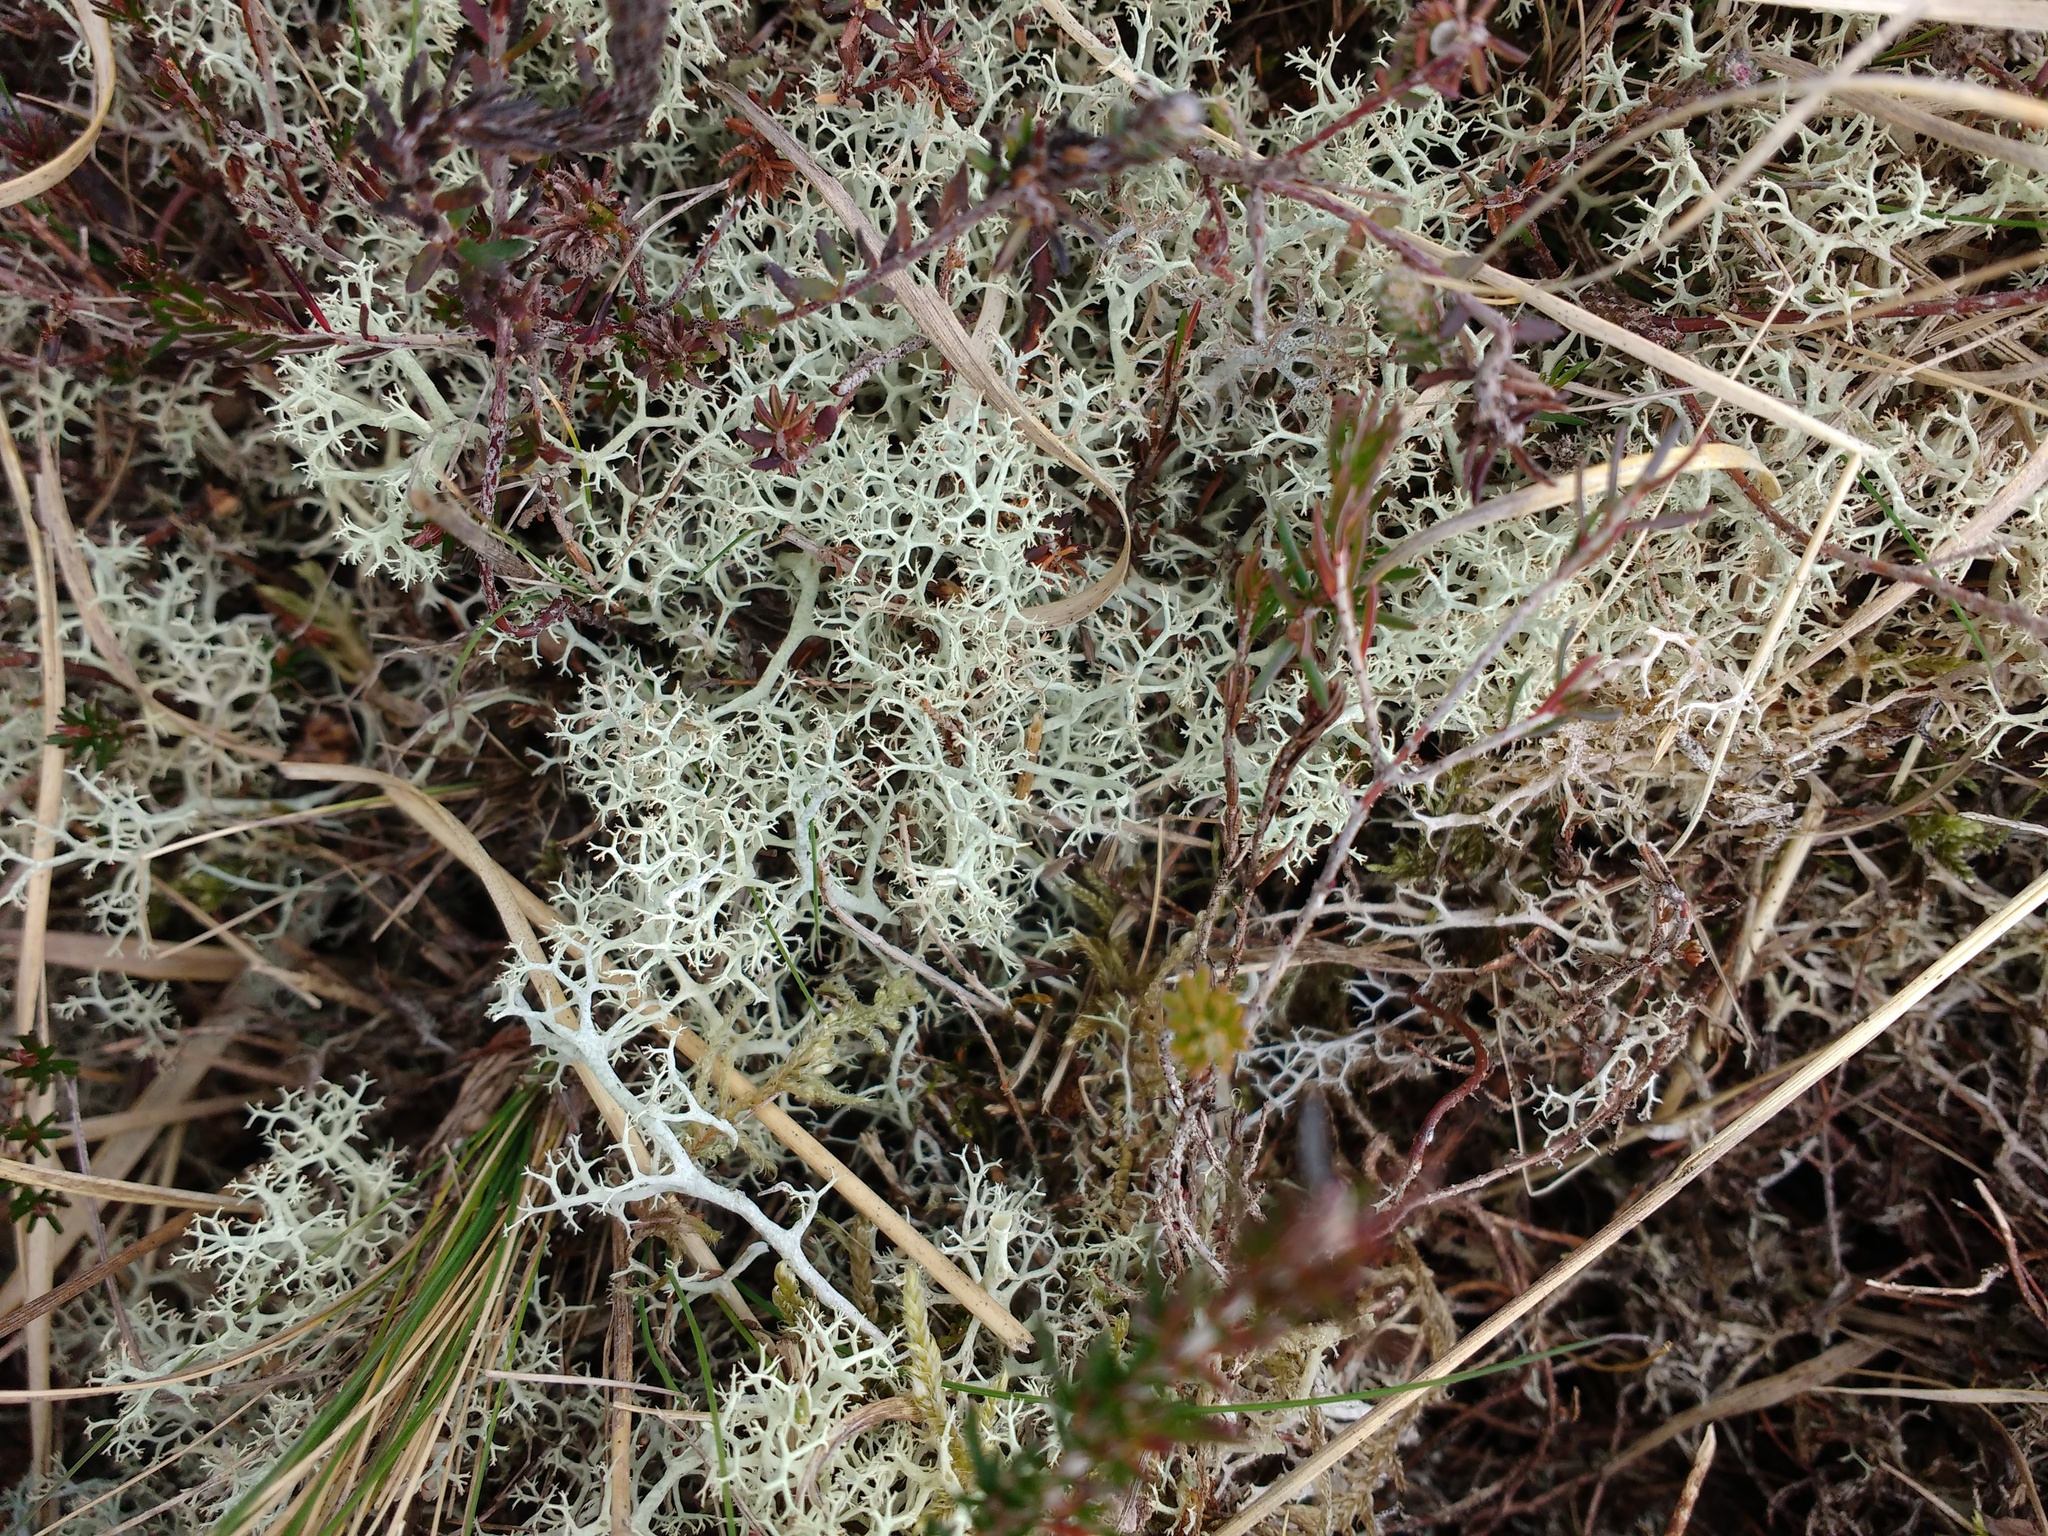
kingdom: Fungi
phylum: Ascomycota
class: Lecanoromycetes
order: Lecanorales
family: Cladoniaceae
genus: Cladonia
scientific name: Cladonia portentosa
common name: Reindeer lichen
